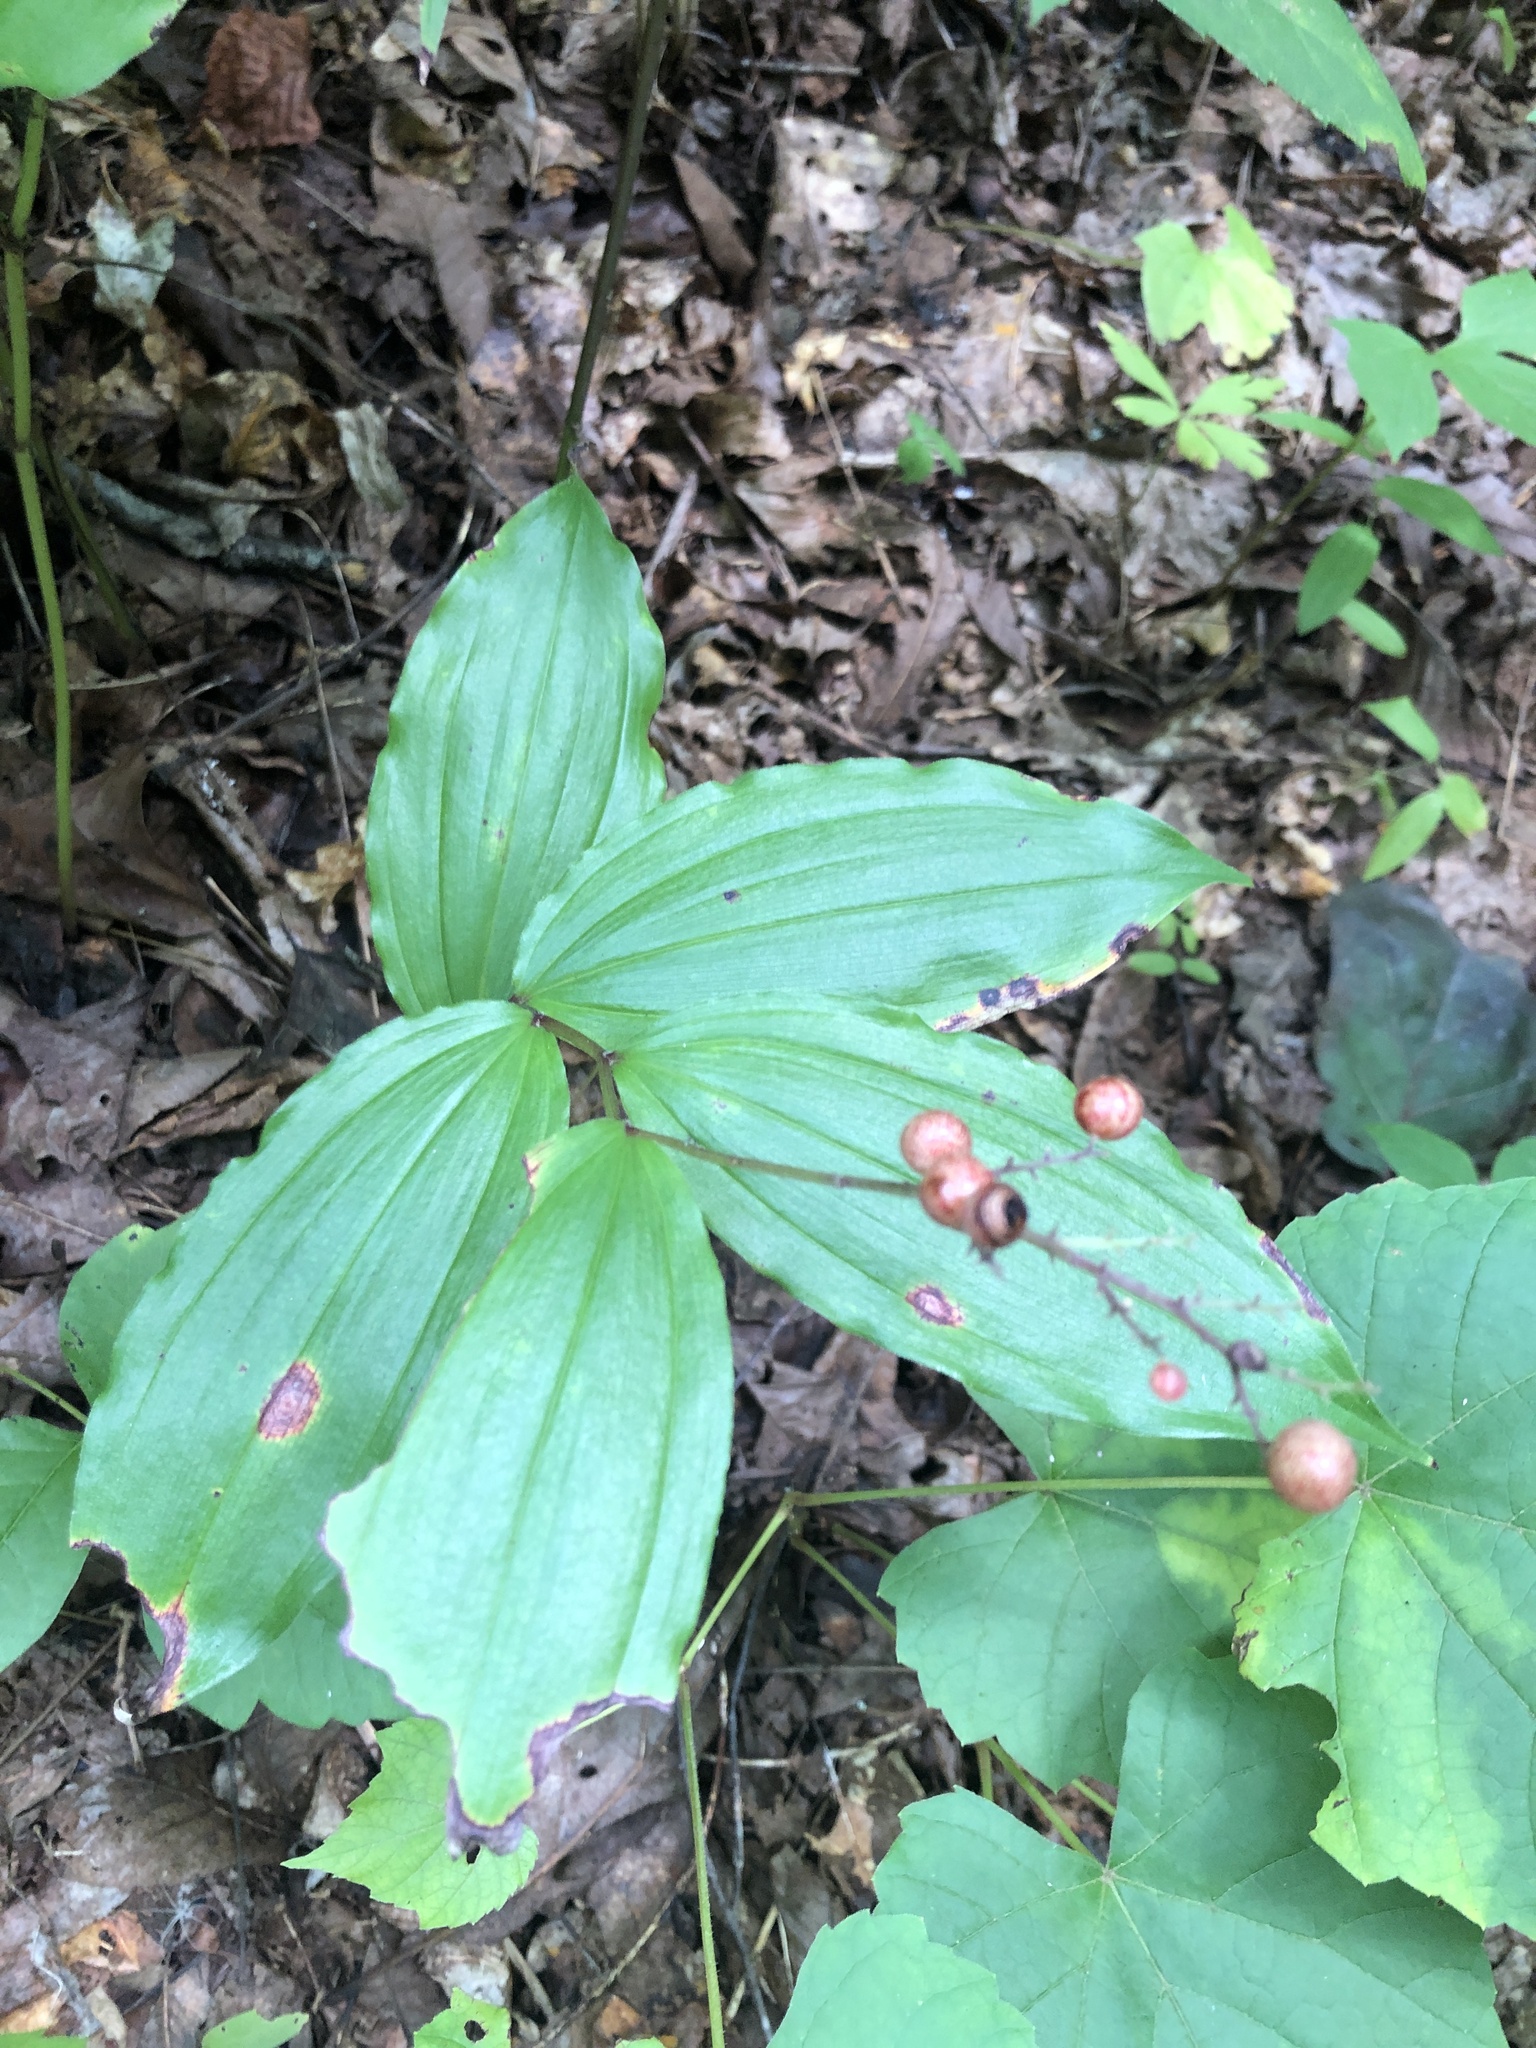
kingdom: Plantae
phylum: Tracheophyta
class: Liliopsida
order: Asparagales
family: Asparagaceae
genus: Maianthemum
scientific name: Maianthemum racemosum
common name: False spikenard
